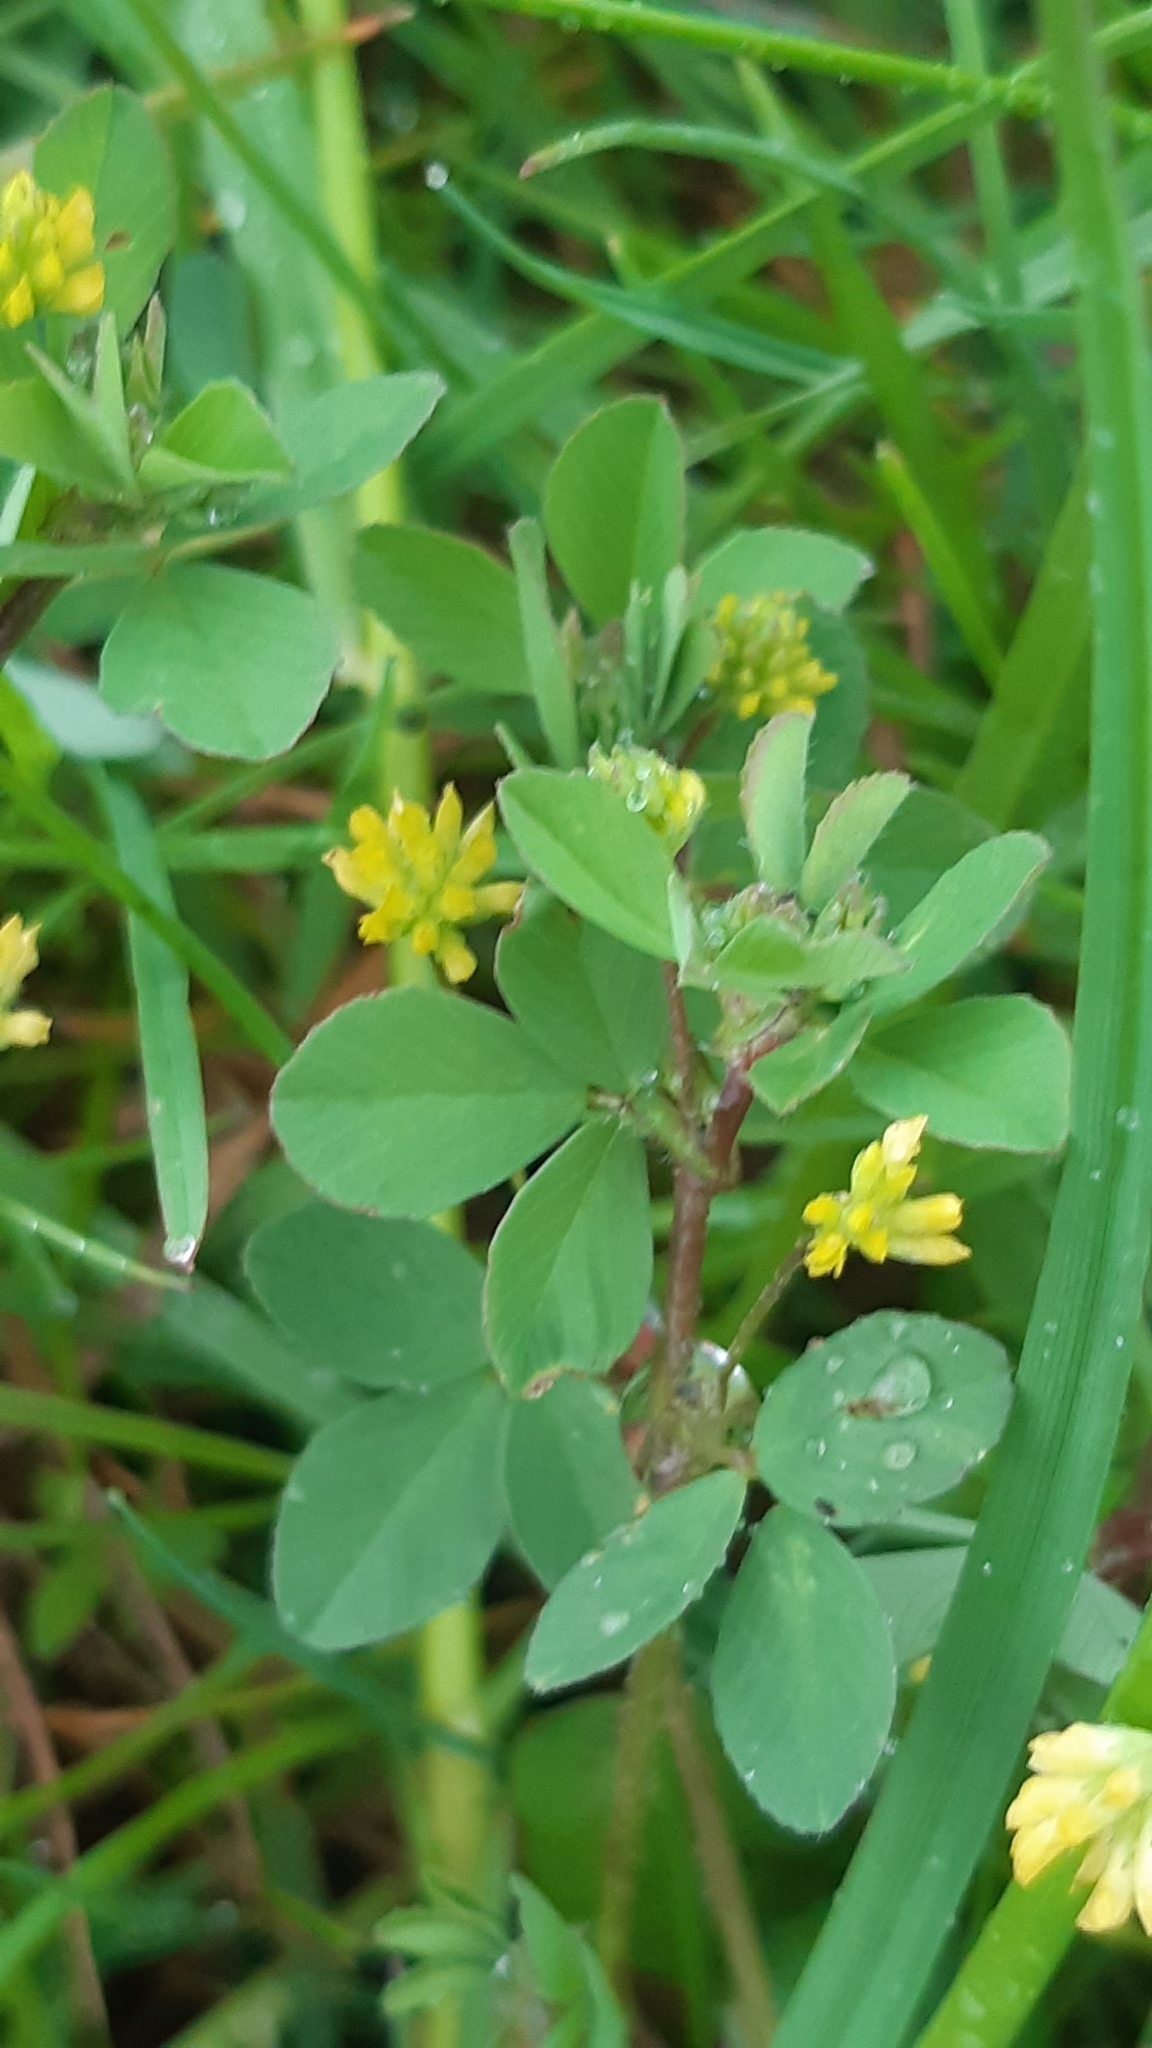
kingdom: Plantae
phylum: Tracheophyta
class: Magnoliopsida
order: Fabales
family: Fabaceae
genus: Trifolium
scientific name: Trifolium dubium
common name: Suckling clover
